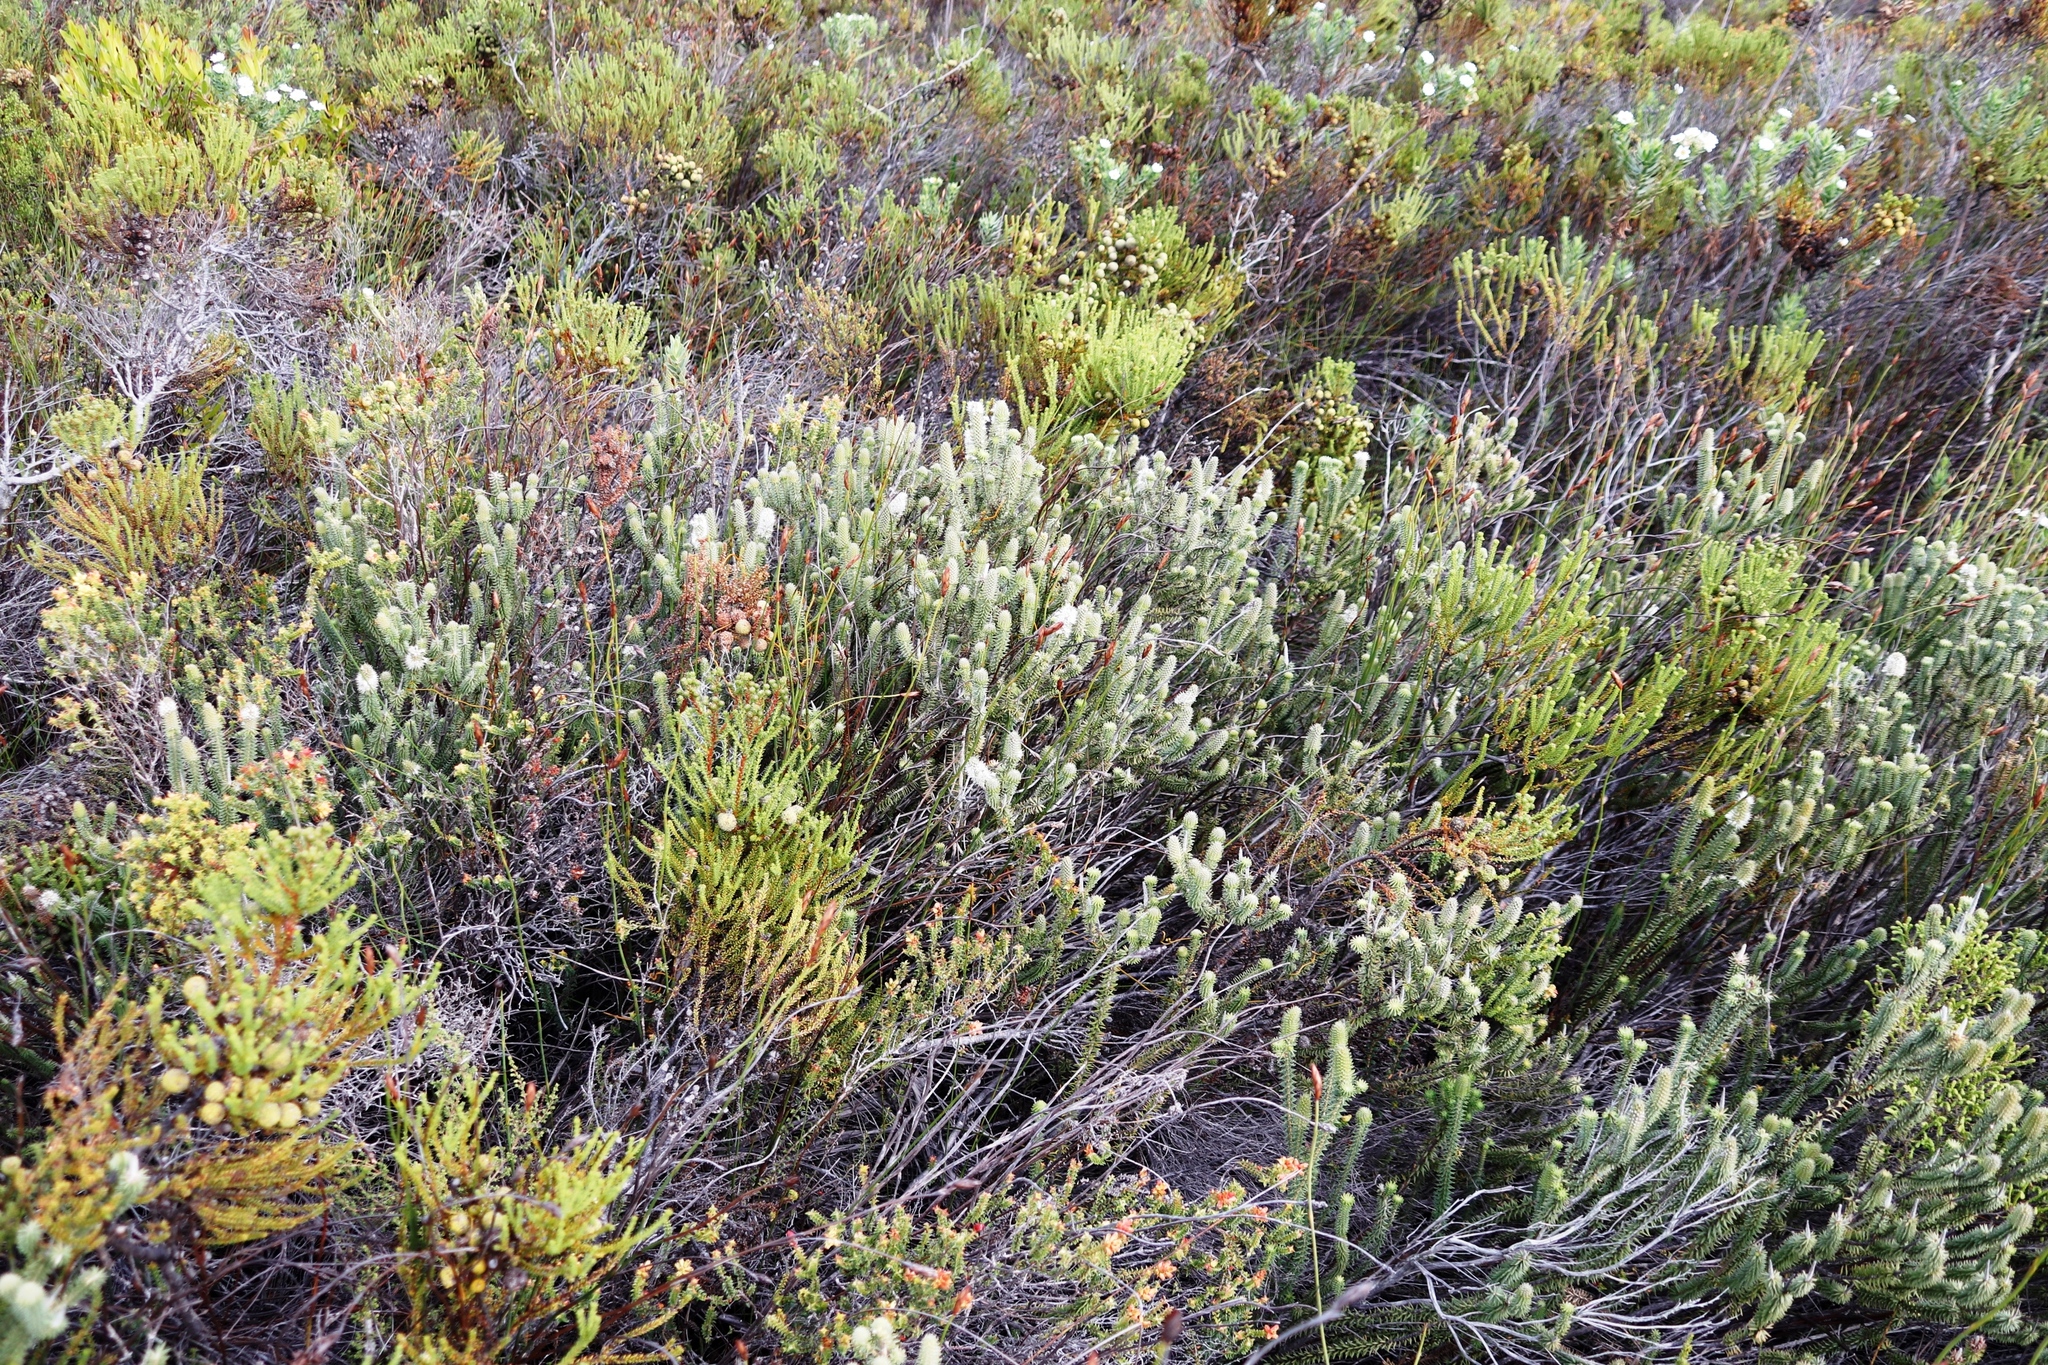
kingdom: Plantae
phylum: Tracheophyta
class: Magnoliopsida
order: Lamiales
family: Stilbaceae
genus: Stilbe
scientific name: Stilbe vestita
